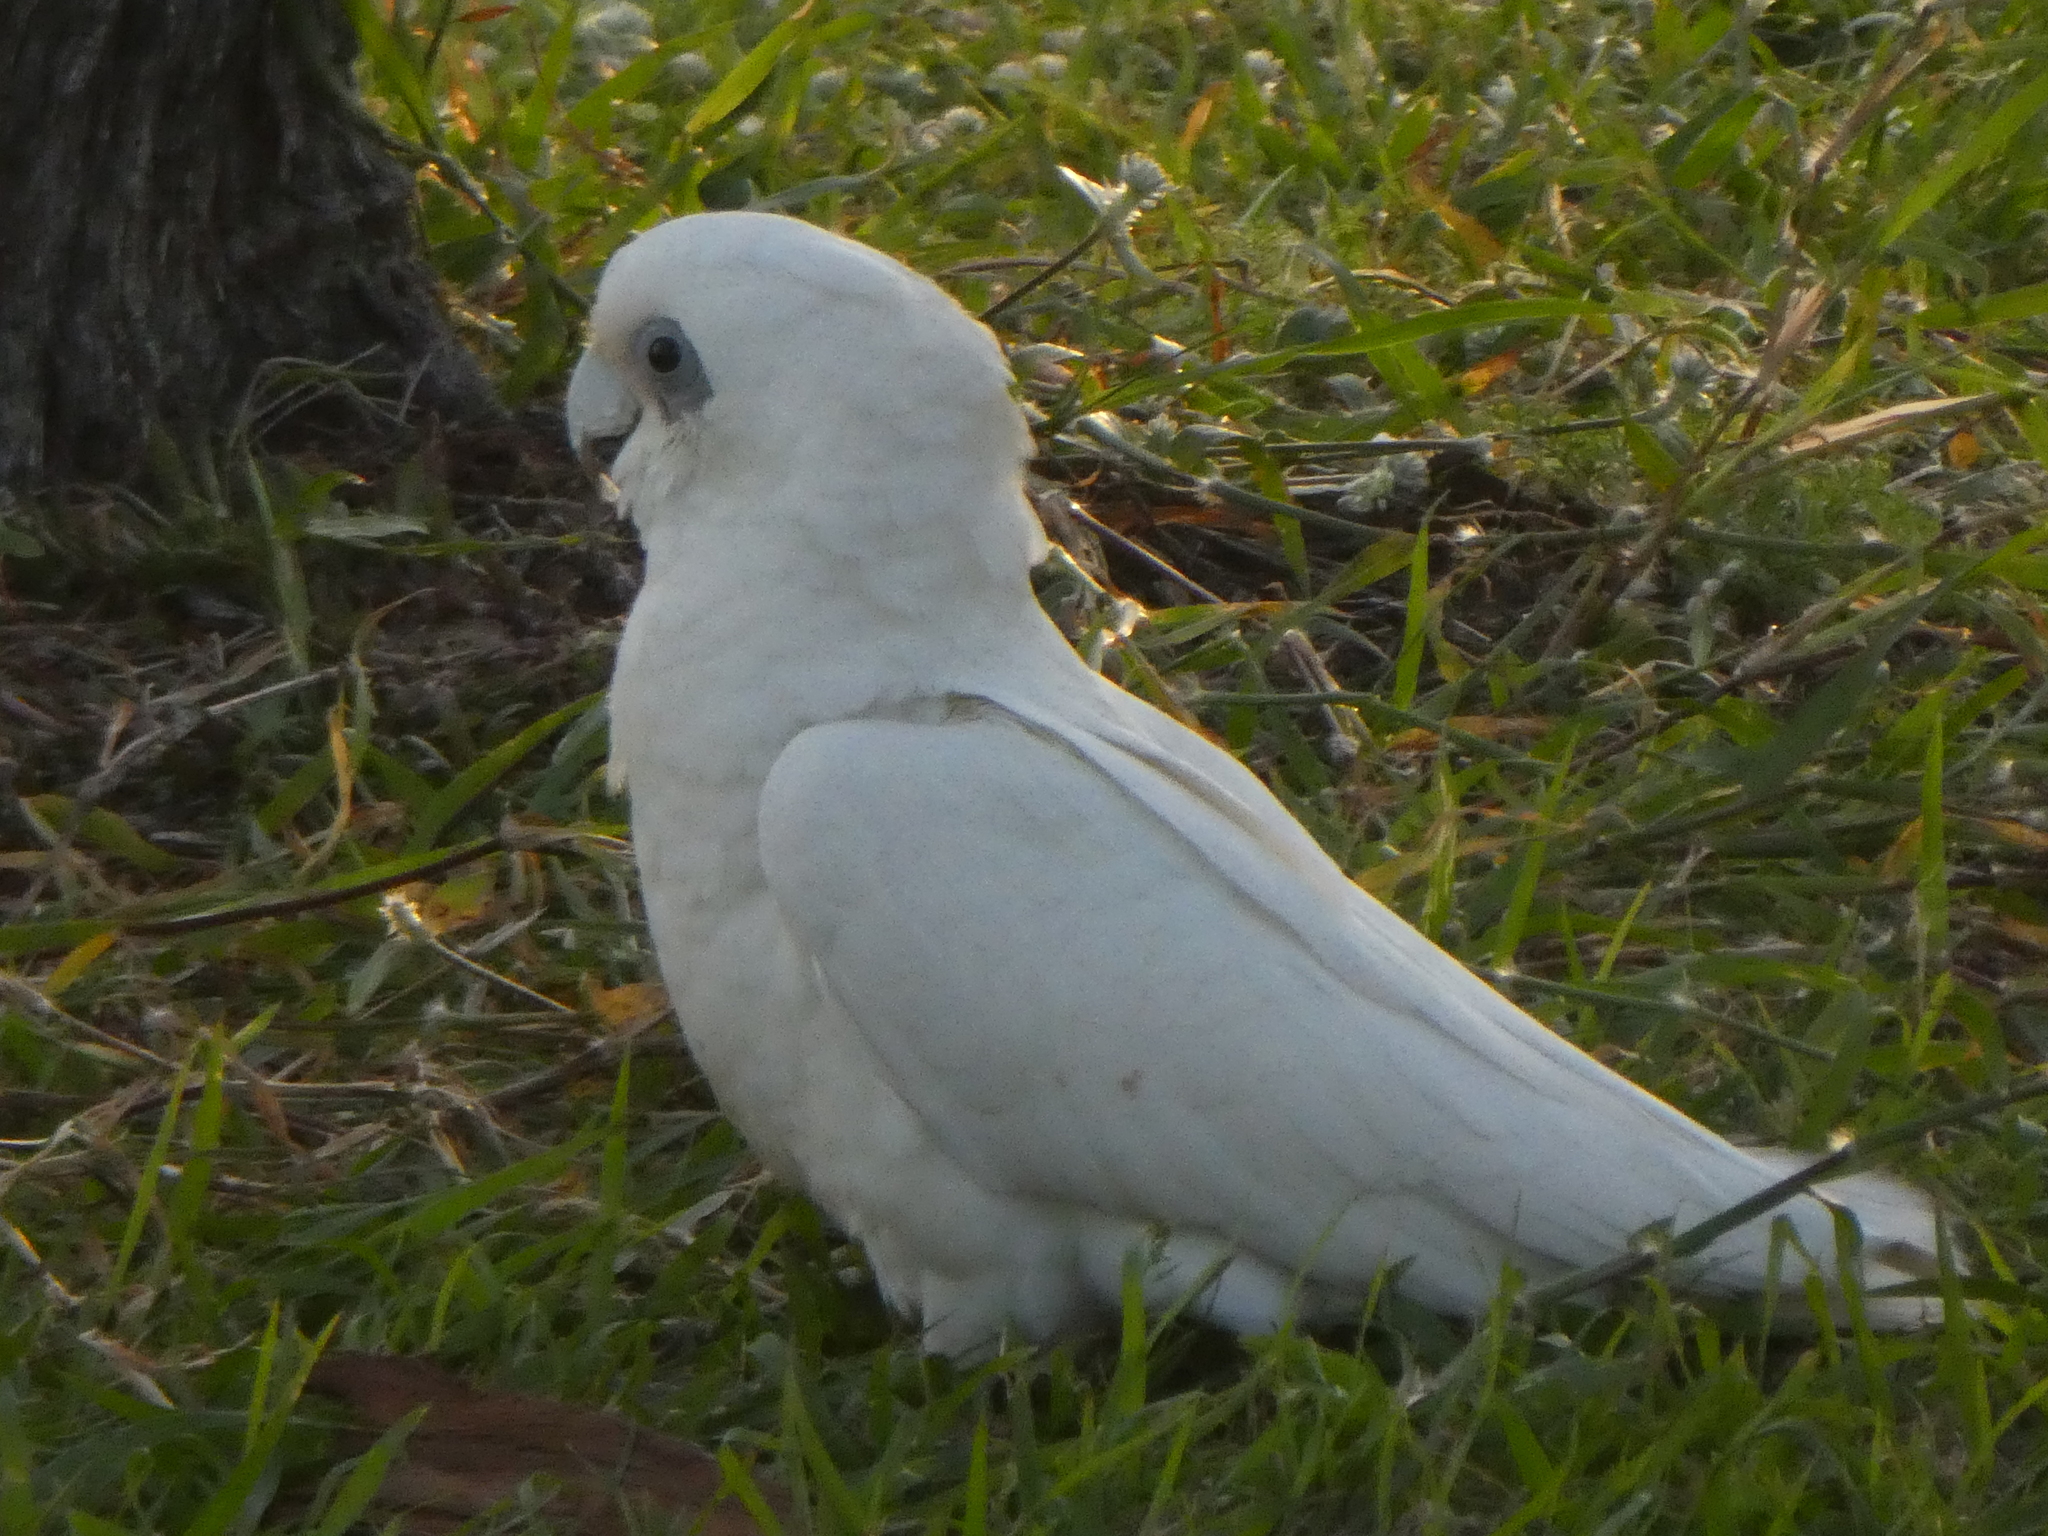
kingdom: Animalia
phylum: Chordata
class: Aves
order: Psittaciformes
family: Psittacidae
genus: Cacatua
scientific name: Cacatua sanguinea
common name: Little corella
